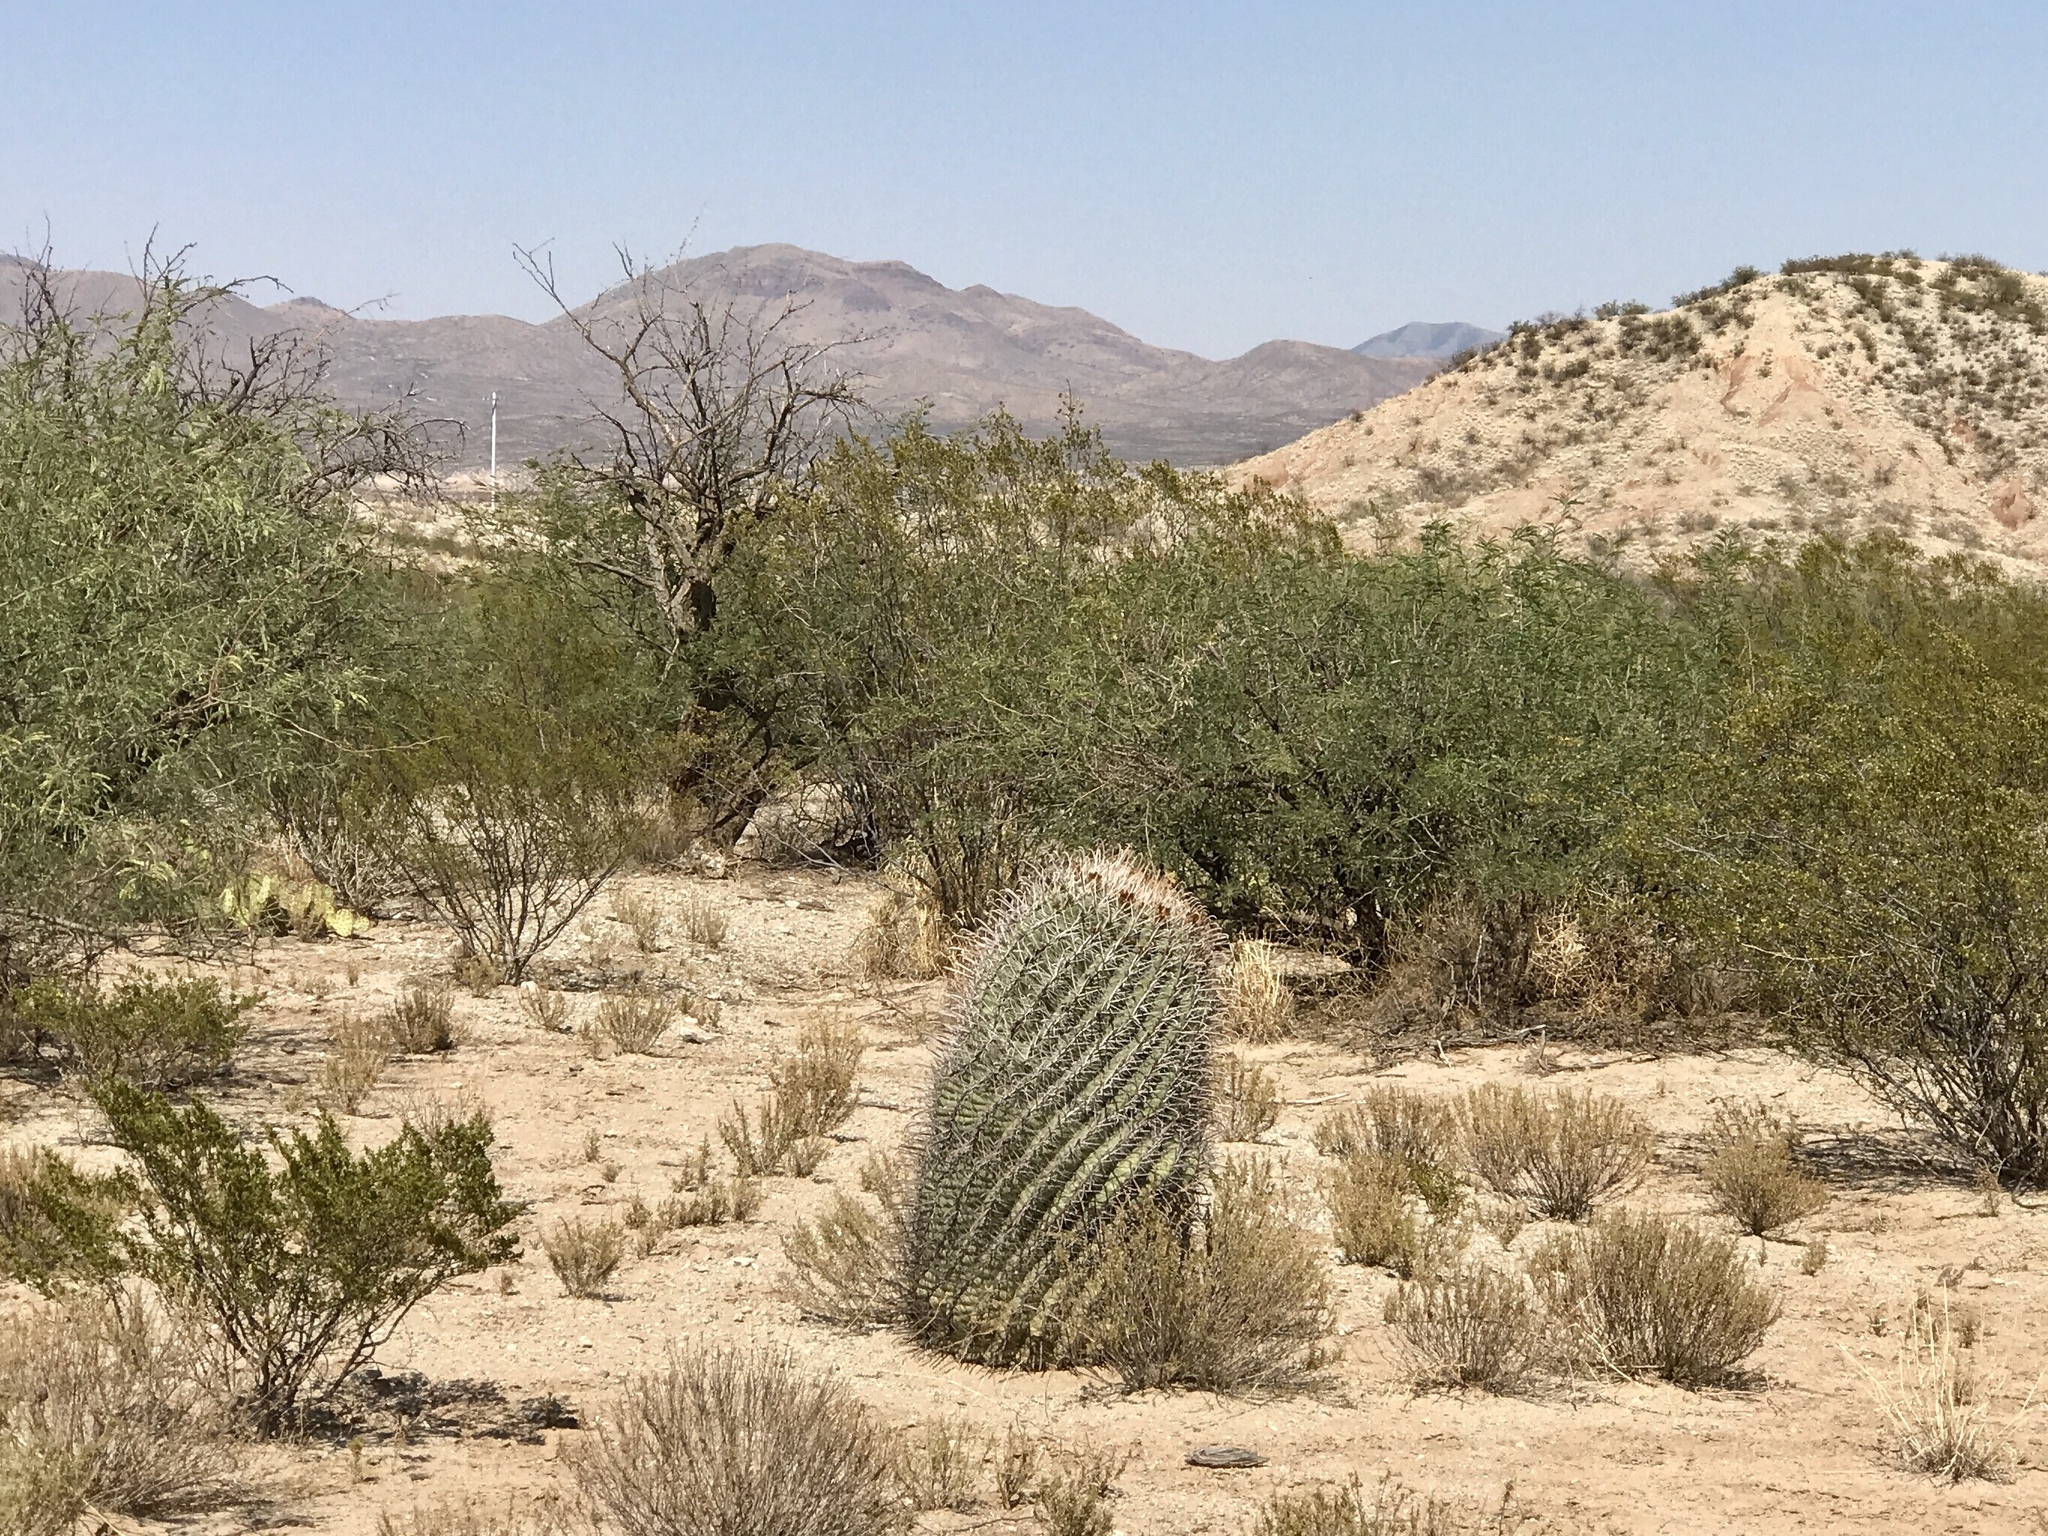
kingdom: Plantae
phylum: Tracheophyta
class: Magnoliopsida
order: Caryophyllales
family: Cactaceae
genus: Ferocactus
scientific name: Ferocactus wislizeni
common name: Candy barrel cactus
